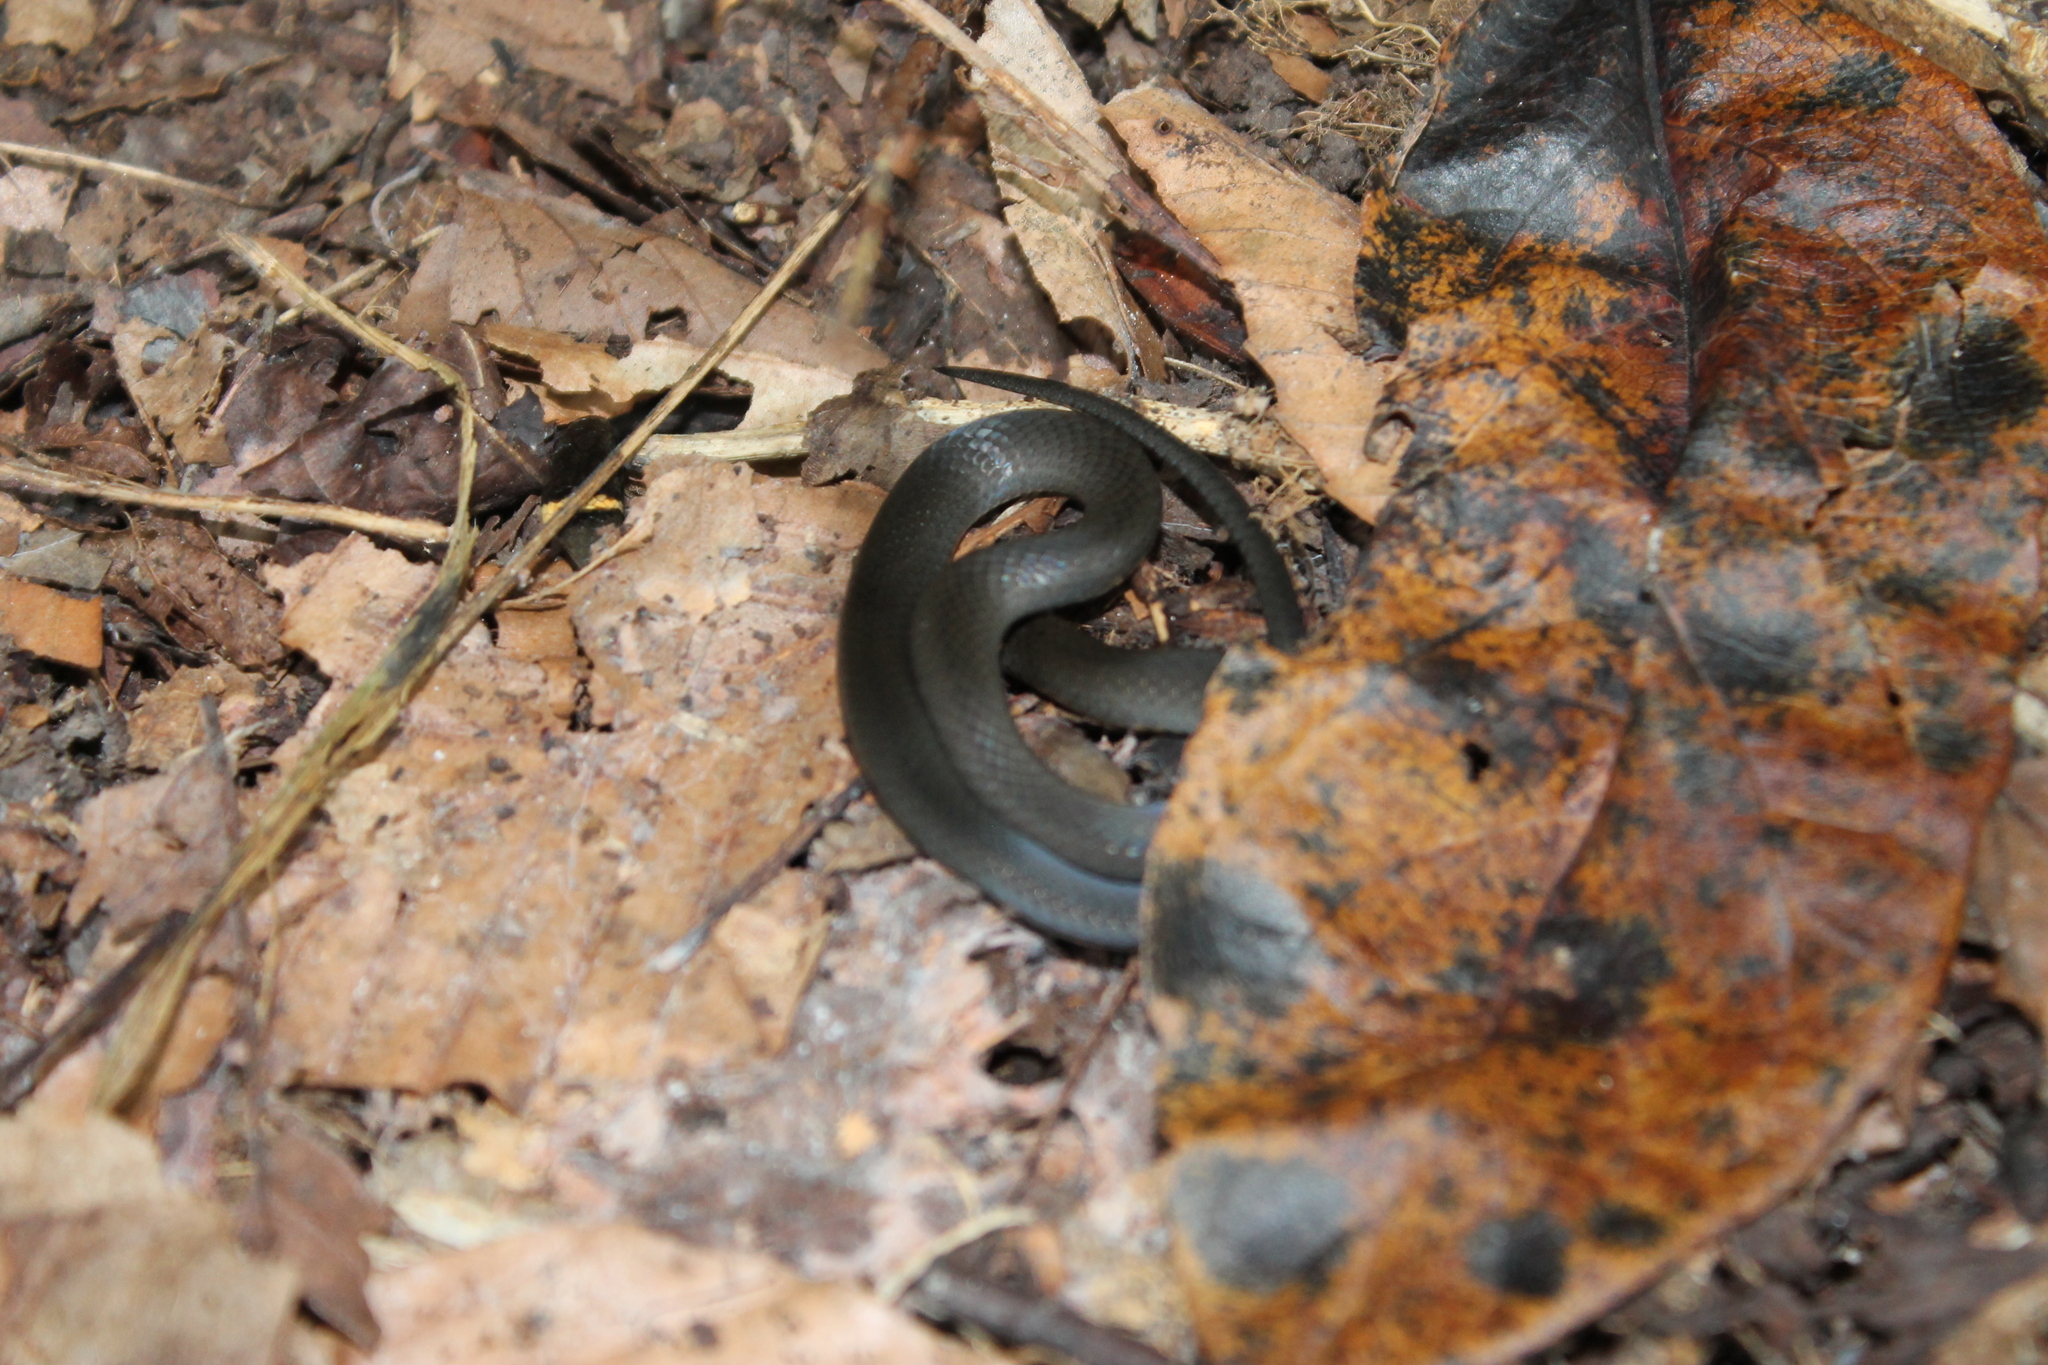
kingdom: Animalia
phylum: Chordata
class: Squamata
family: Colubridae
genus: Diadophis
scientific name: Diadophis punctatus
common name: Ringneck snake
